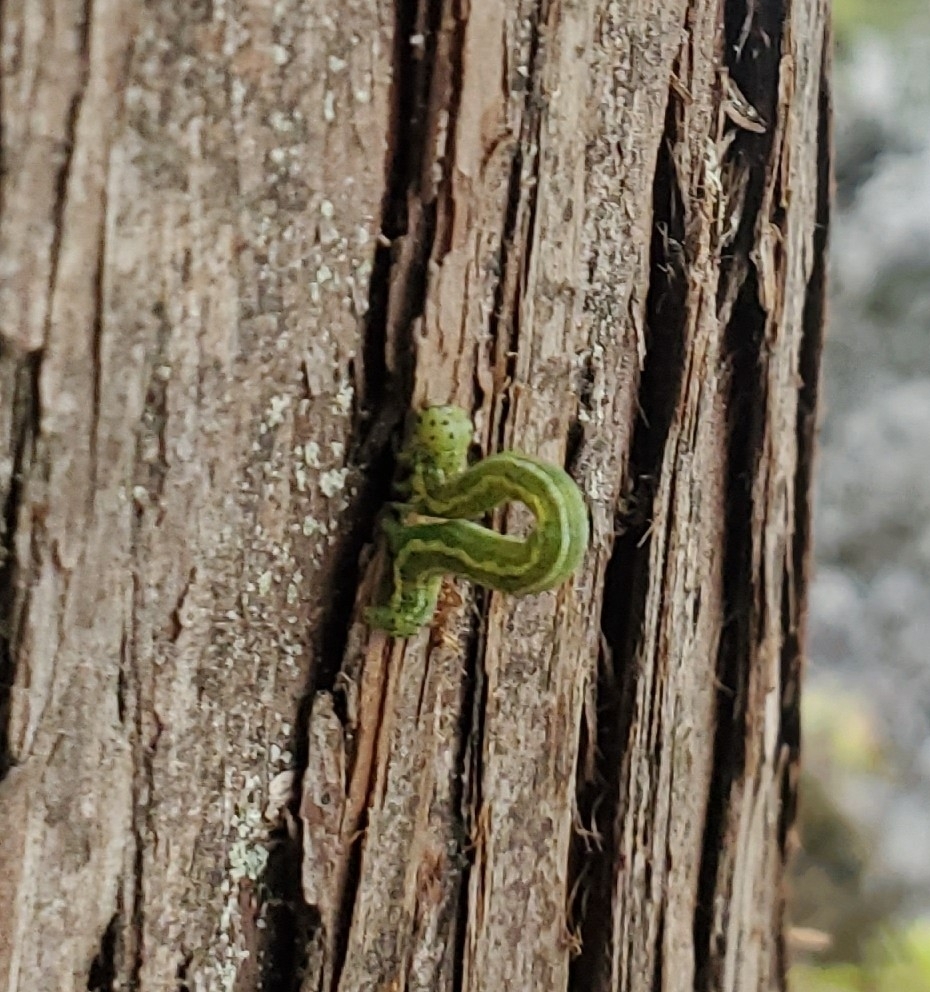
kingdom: Animalia
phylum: Arthropoda
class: Insecta
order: Lepidoptera
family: Geometridae
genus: Nepytia
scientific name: Nepytia phantasmaria
